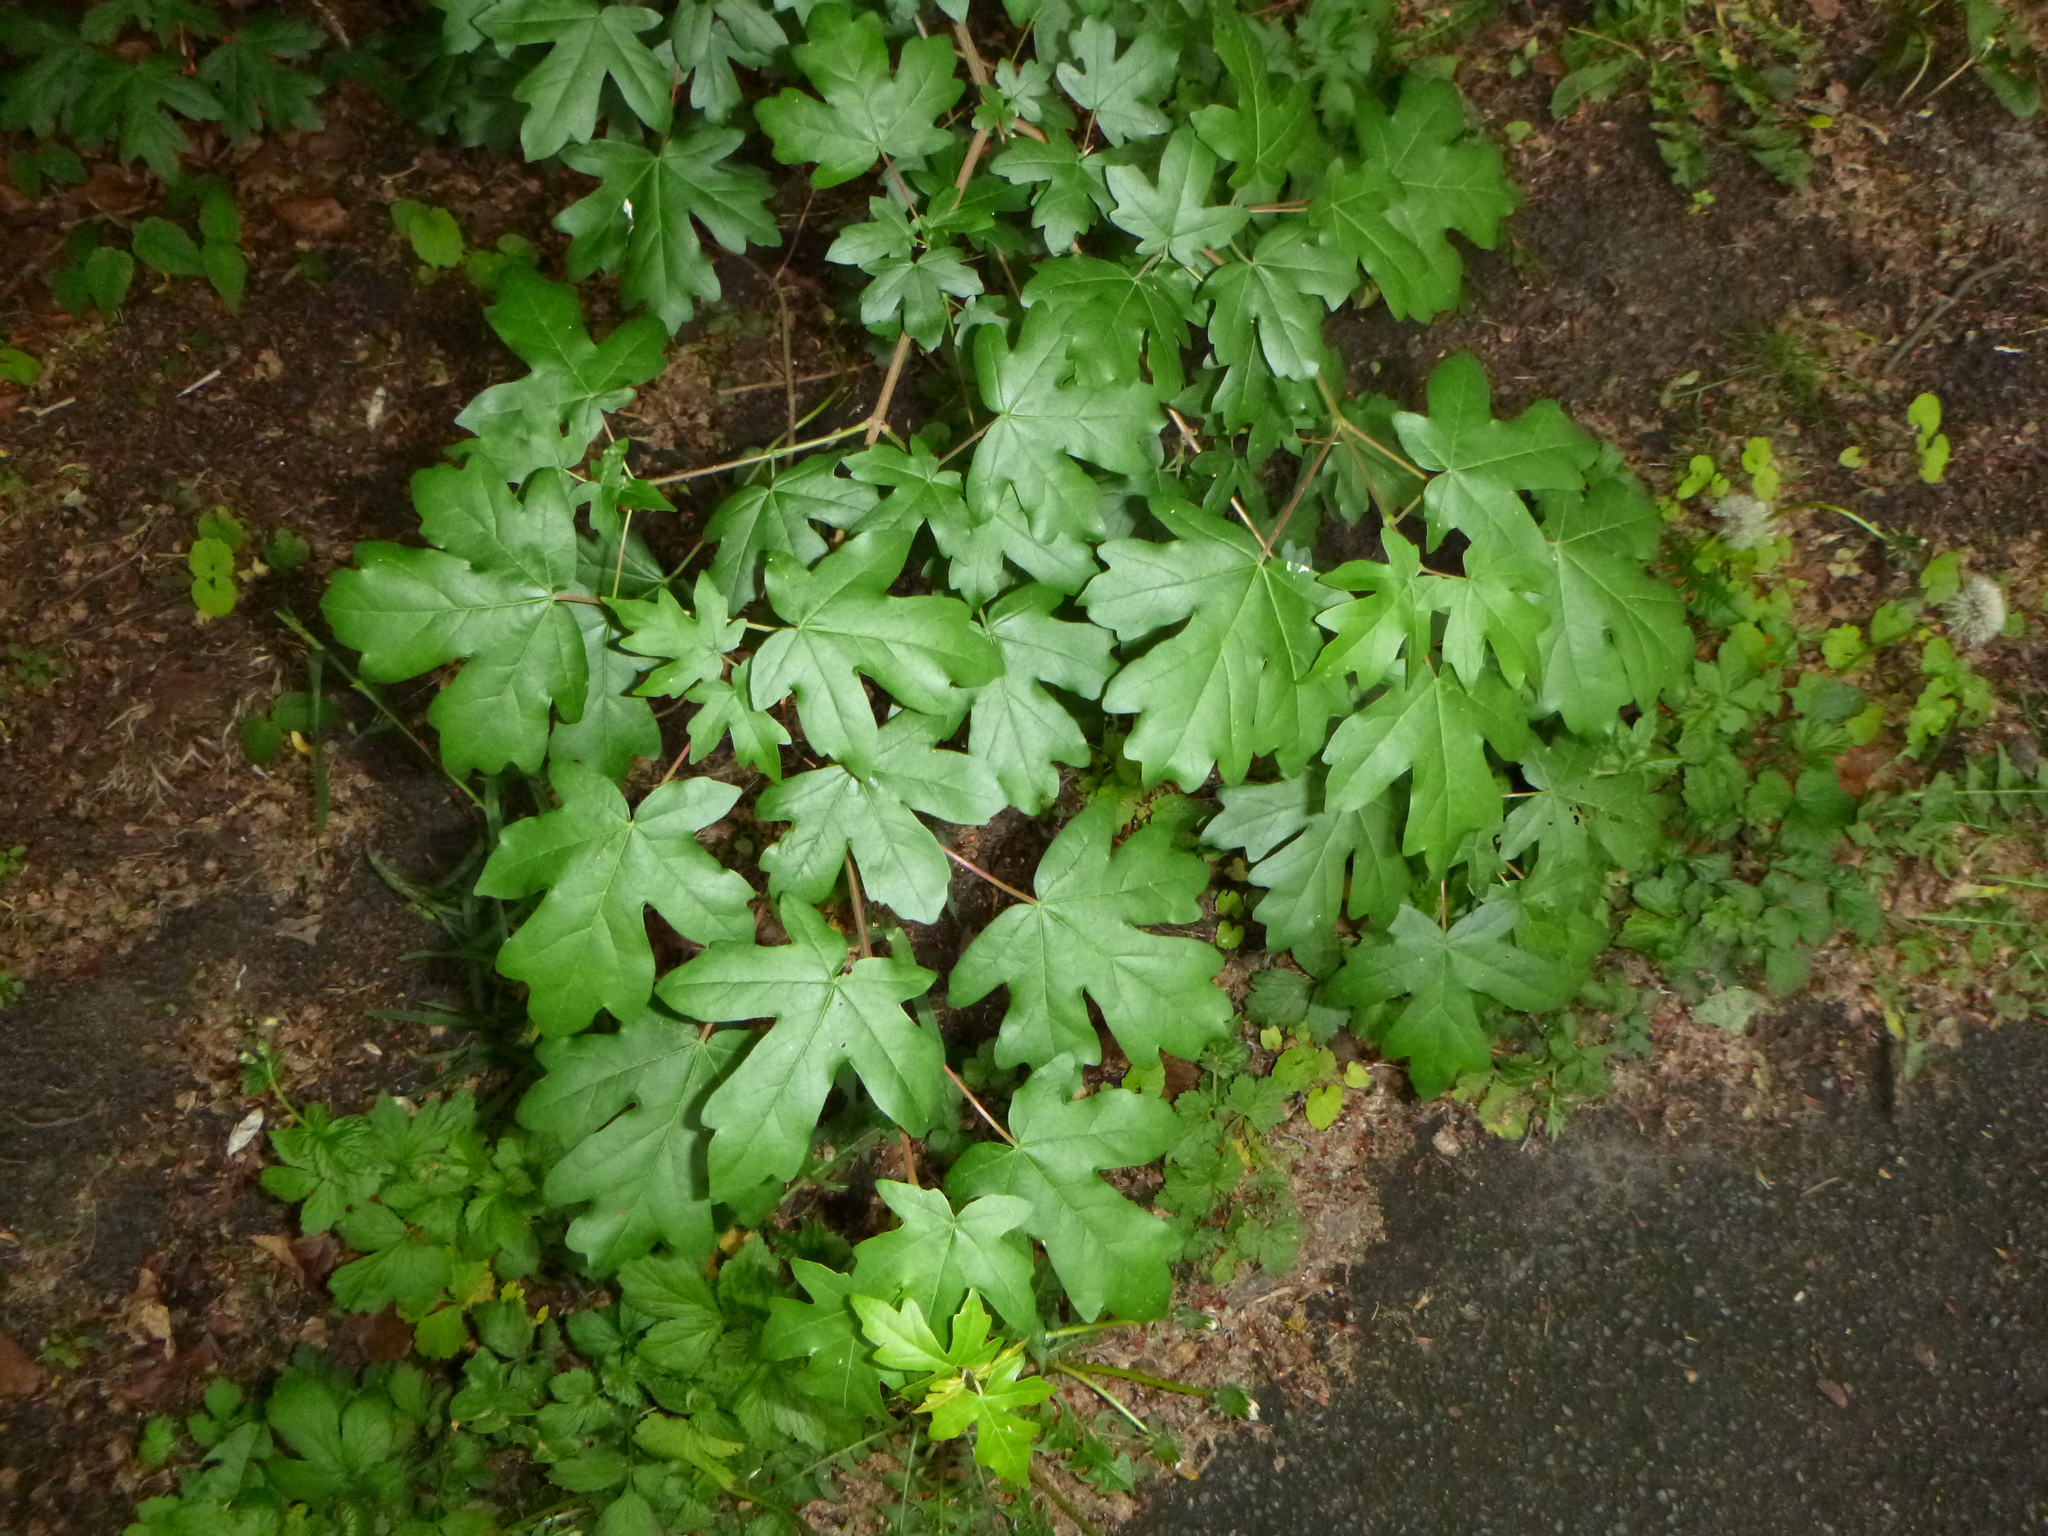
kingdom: Plantae
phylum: Tracheophyta
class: Magnoliopsida
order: Sapindales
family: Sapindaceae
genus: Acer
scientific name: Acer campestre
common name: Field maple
